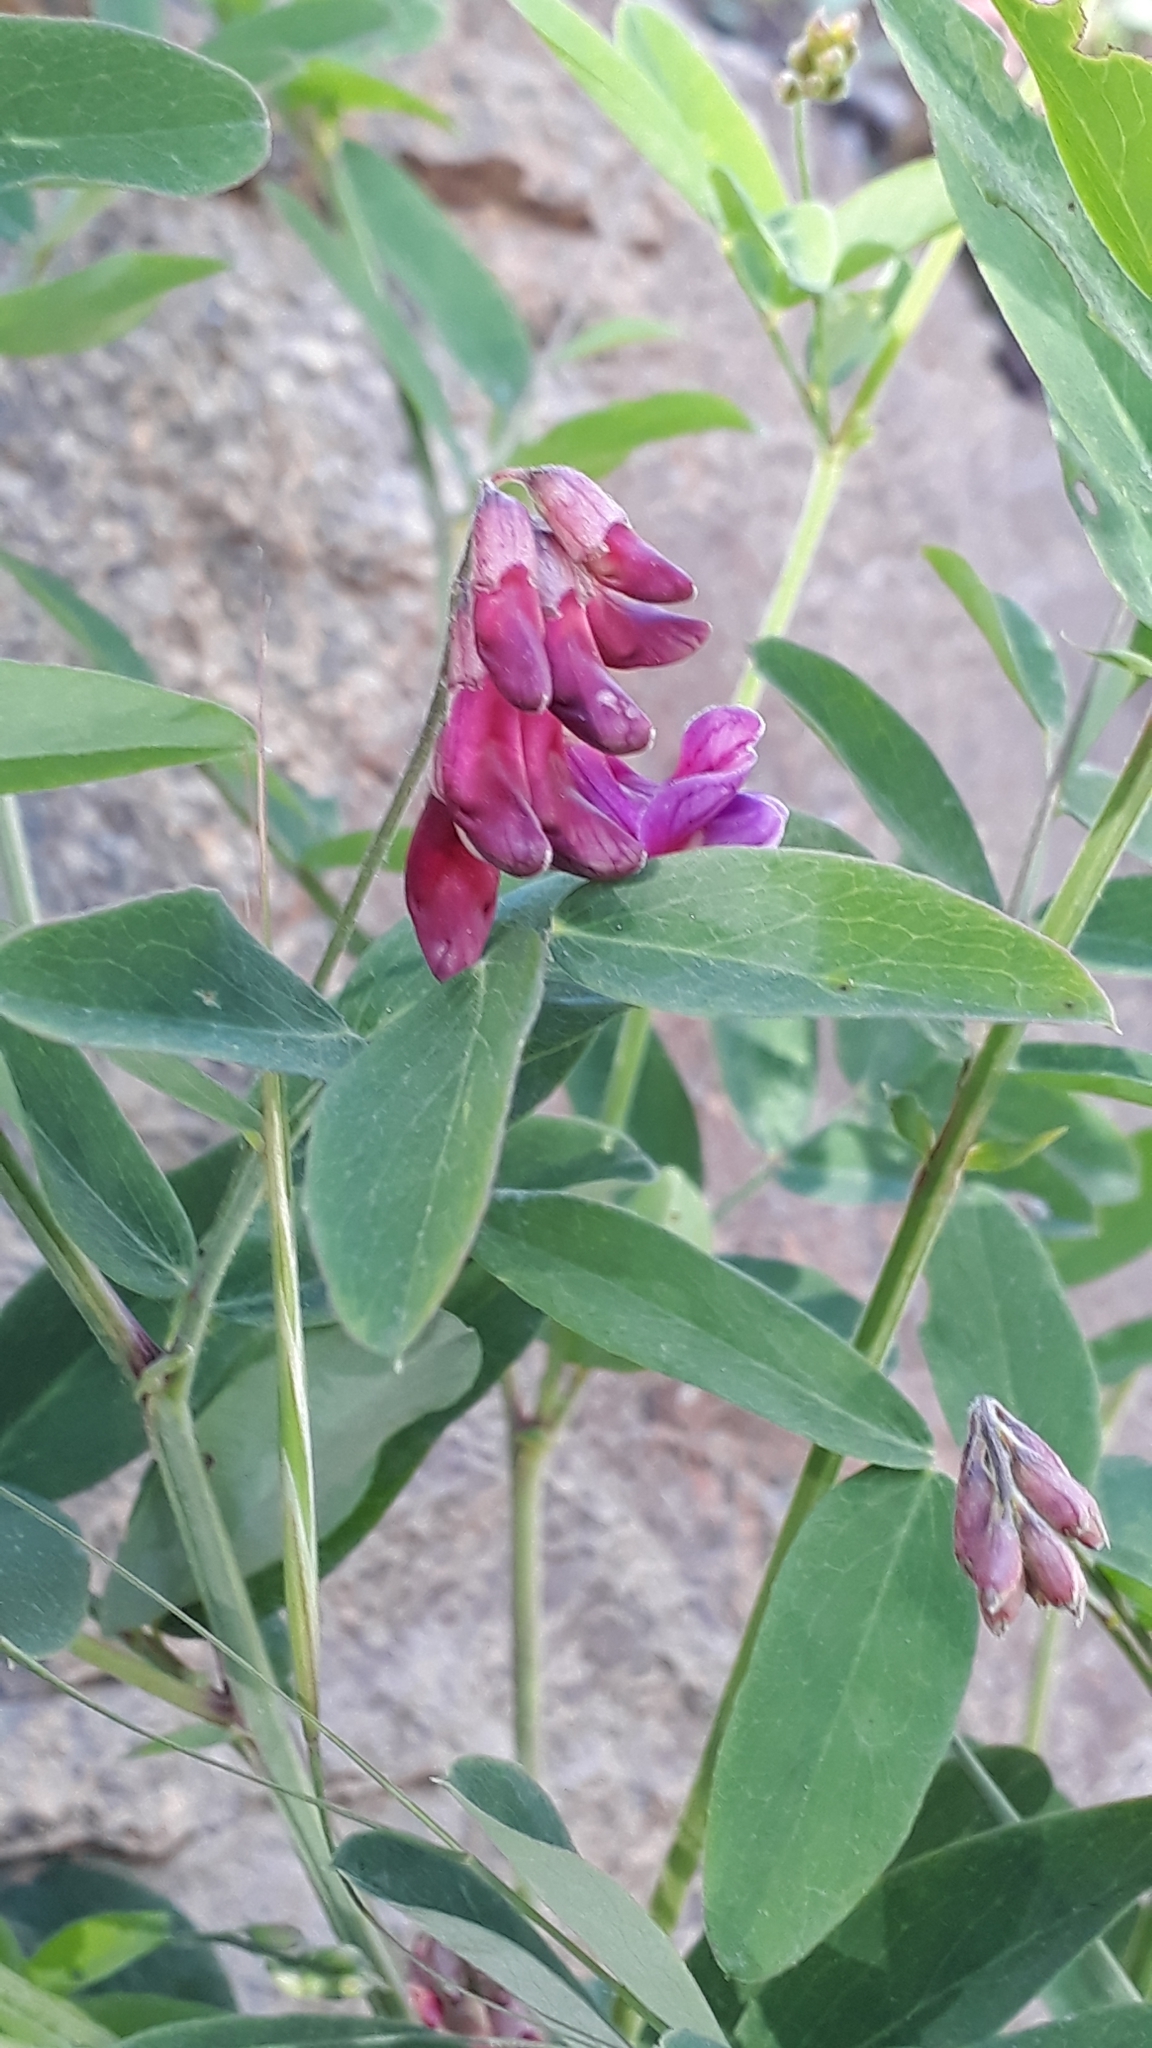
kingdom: Plantae
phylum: Tracheophyta
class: Magnoliopsida
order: Fabales
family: Fabaceae
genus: Lathyrus
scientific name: Lathyrus niger
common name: Black pea
